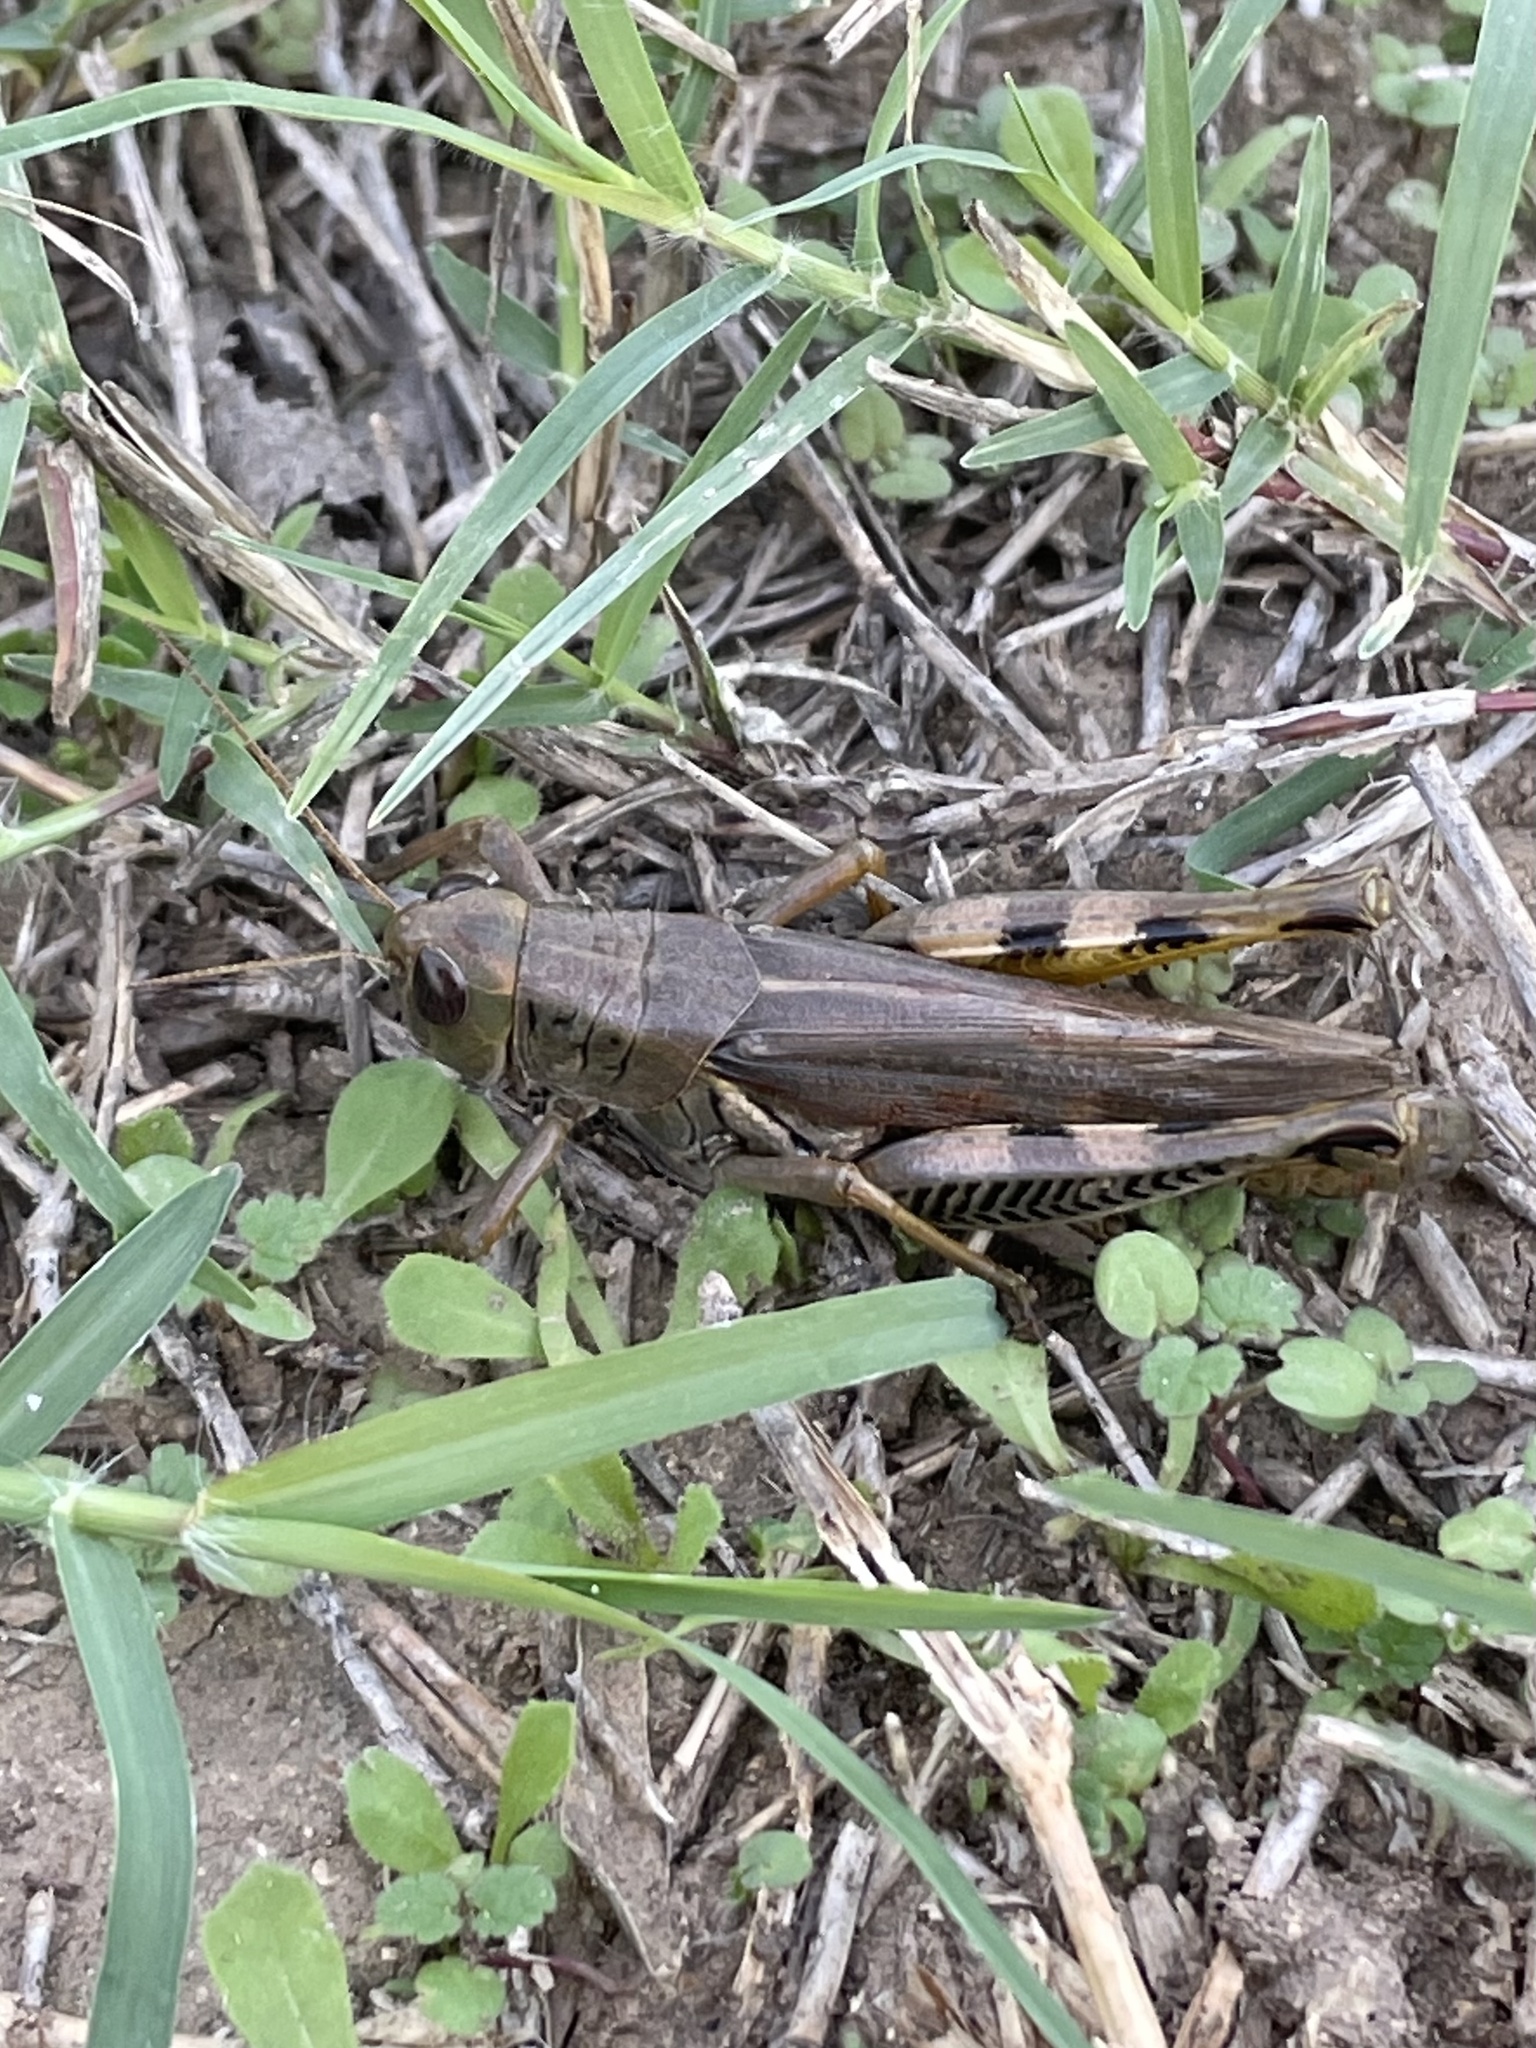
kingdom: Animalia
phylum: Arthropoda
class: Insecta
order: Orthoptera
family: Acrididae
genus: Melanoplus
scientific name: Melanoplus differentialis
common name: Differential grasshopper
